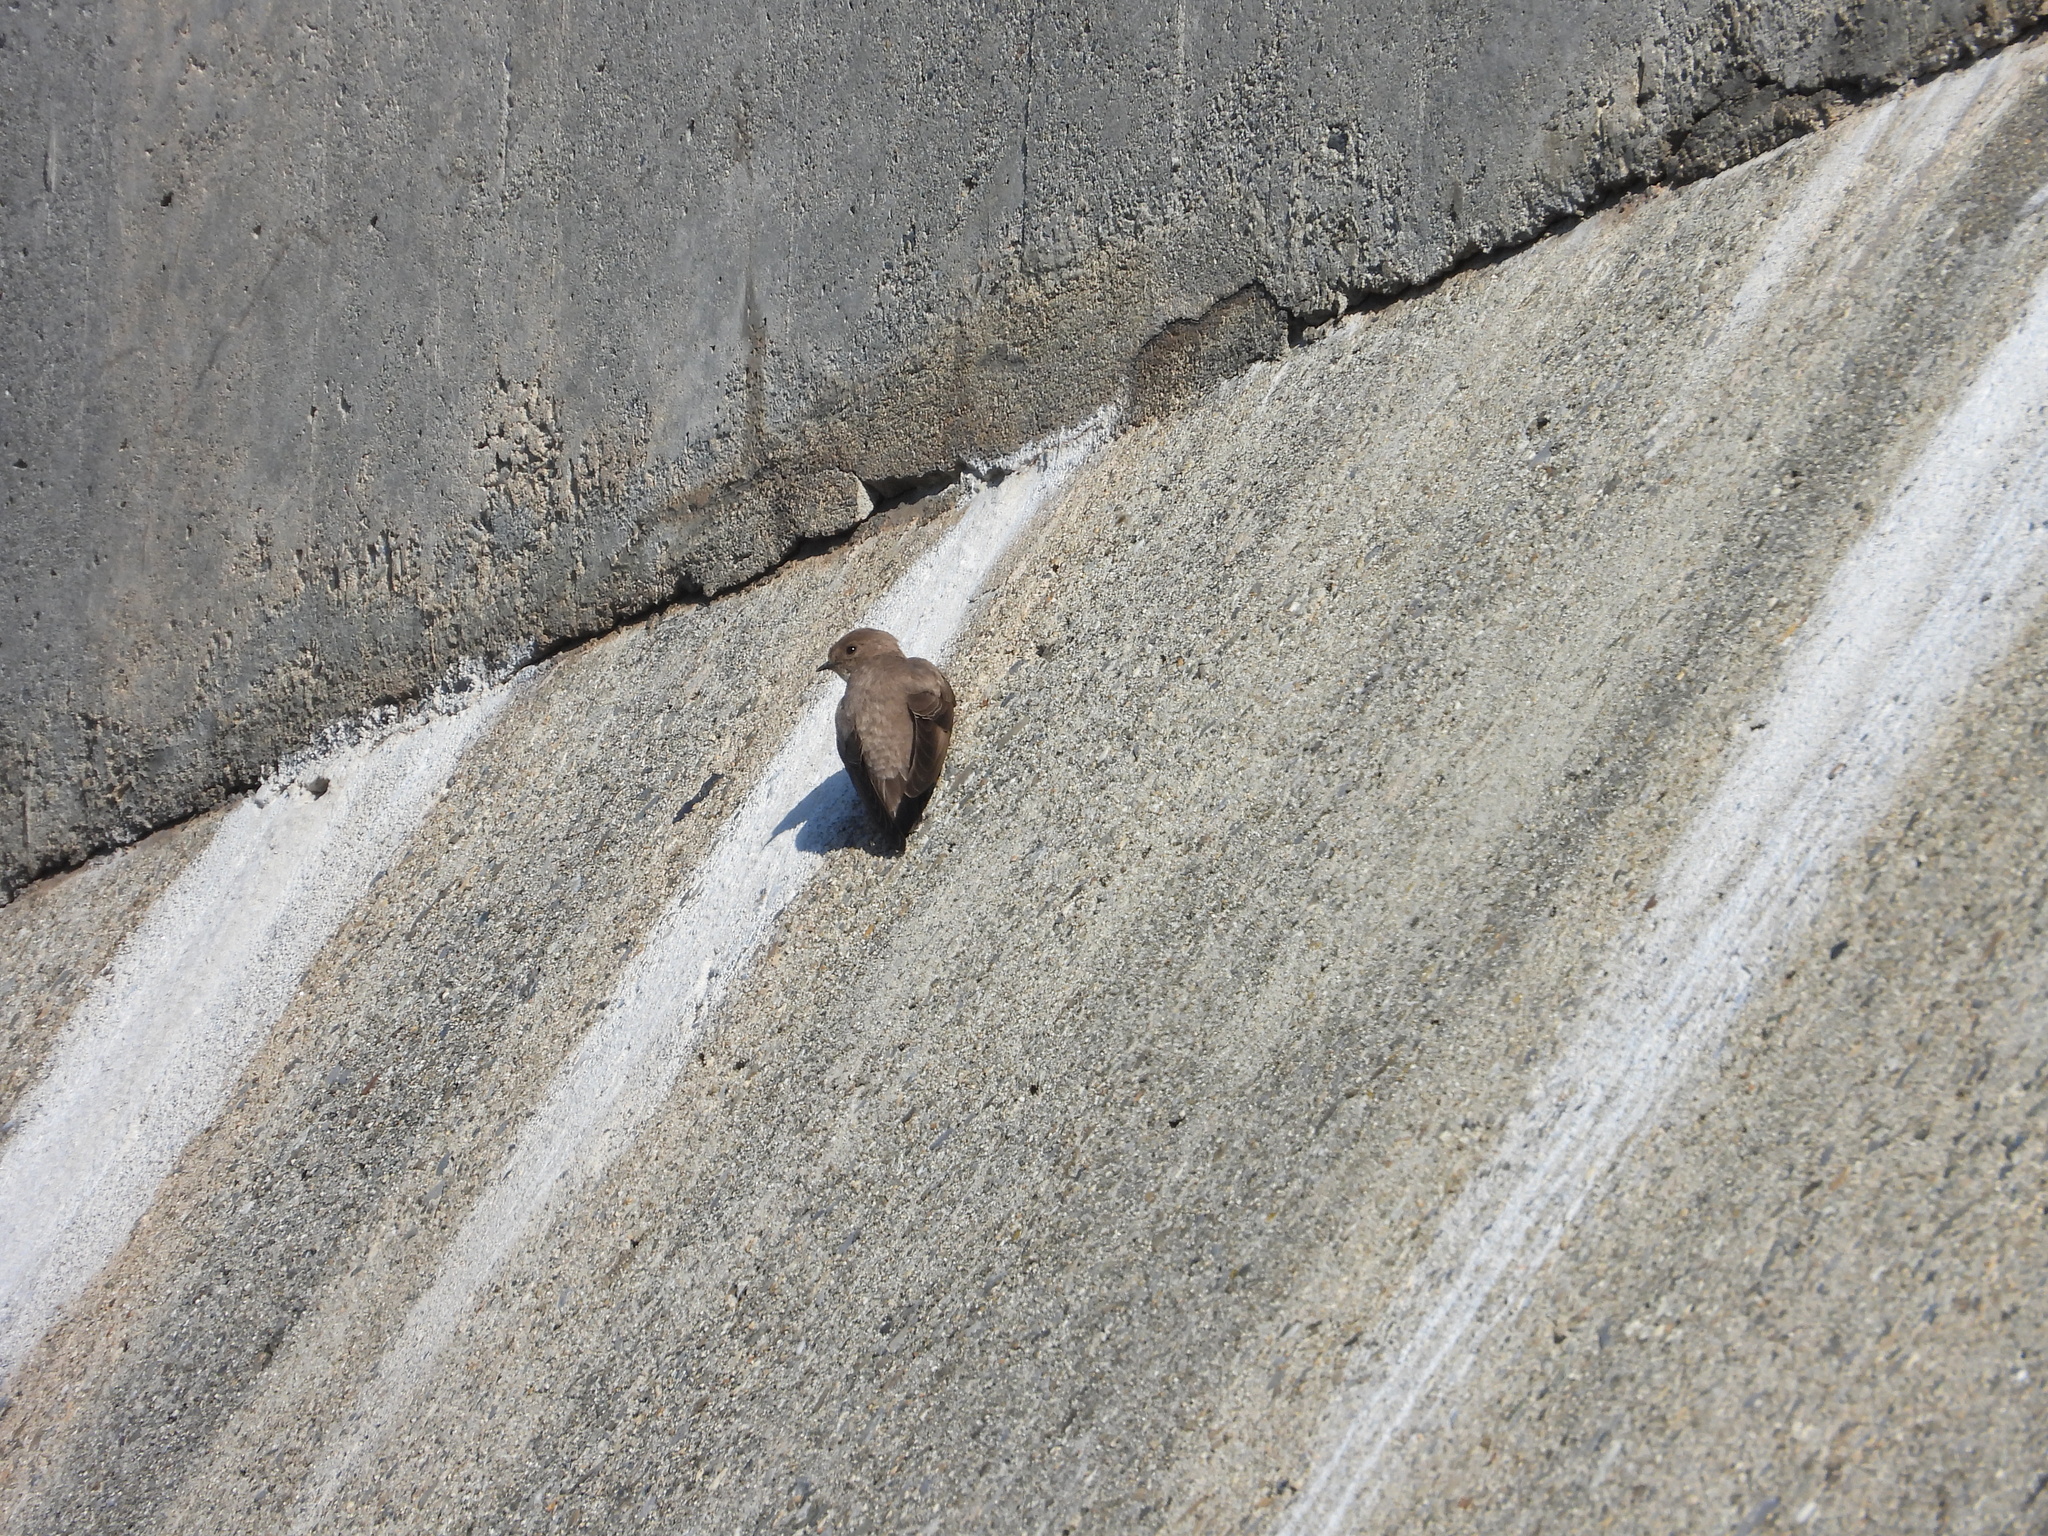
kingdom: Animalia
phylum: Chordata
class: Aves
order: Passeriformes
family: Hirundinidae
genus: Ptyonoprogne
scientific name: Ptyonoprogne rupestris
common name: Eurasian crag martin
